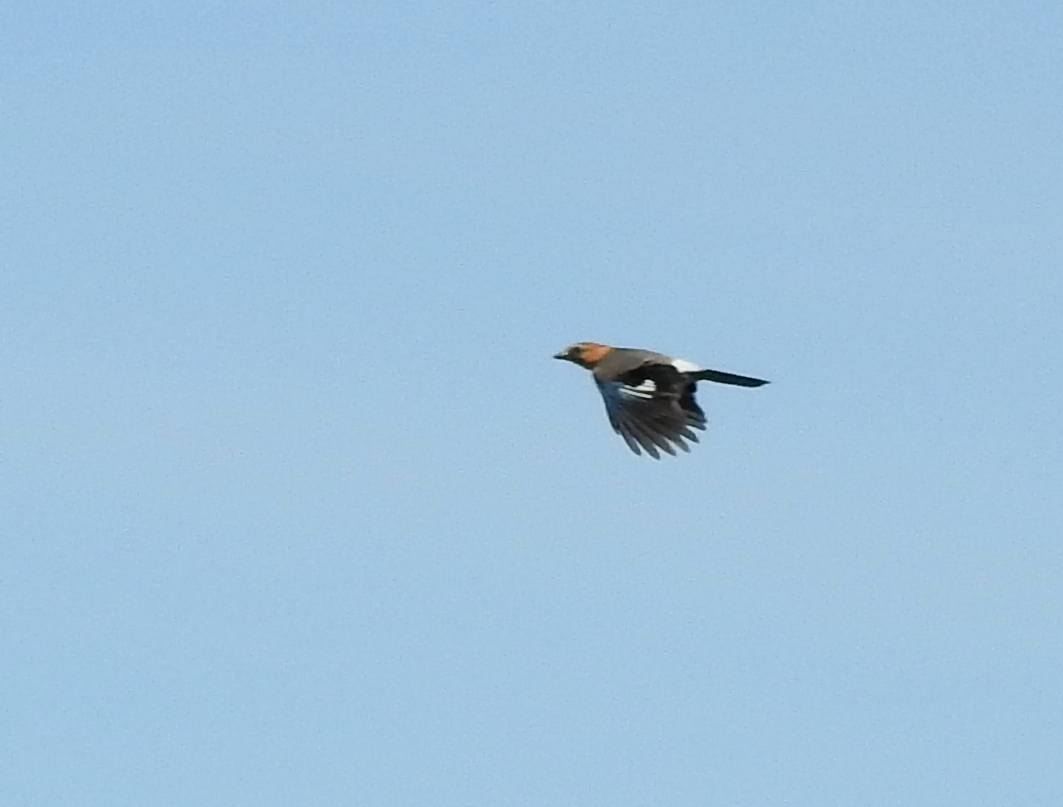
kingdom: Animalia
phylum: Chordata
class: Aves
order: Passeriformes
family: Corvidae
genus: Garrulus
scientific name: Garrulus glandarius
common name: Eurasian jay
